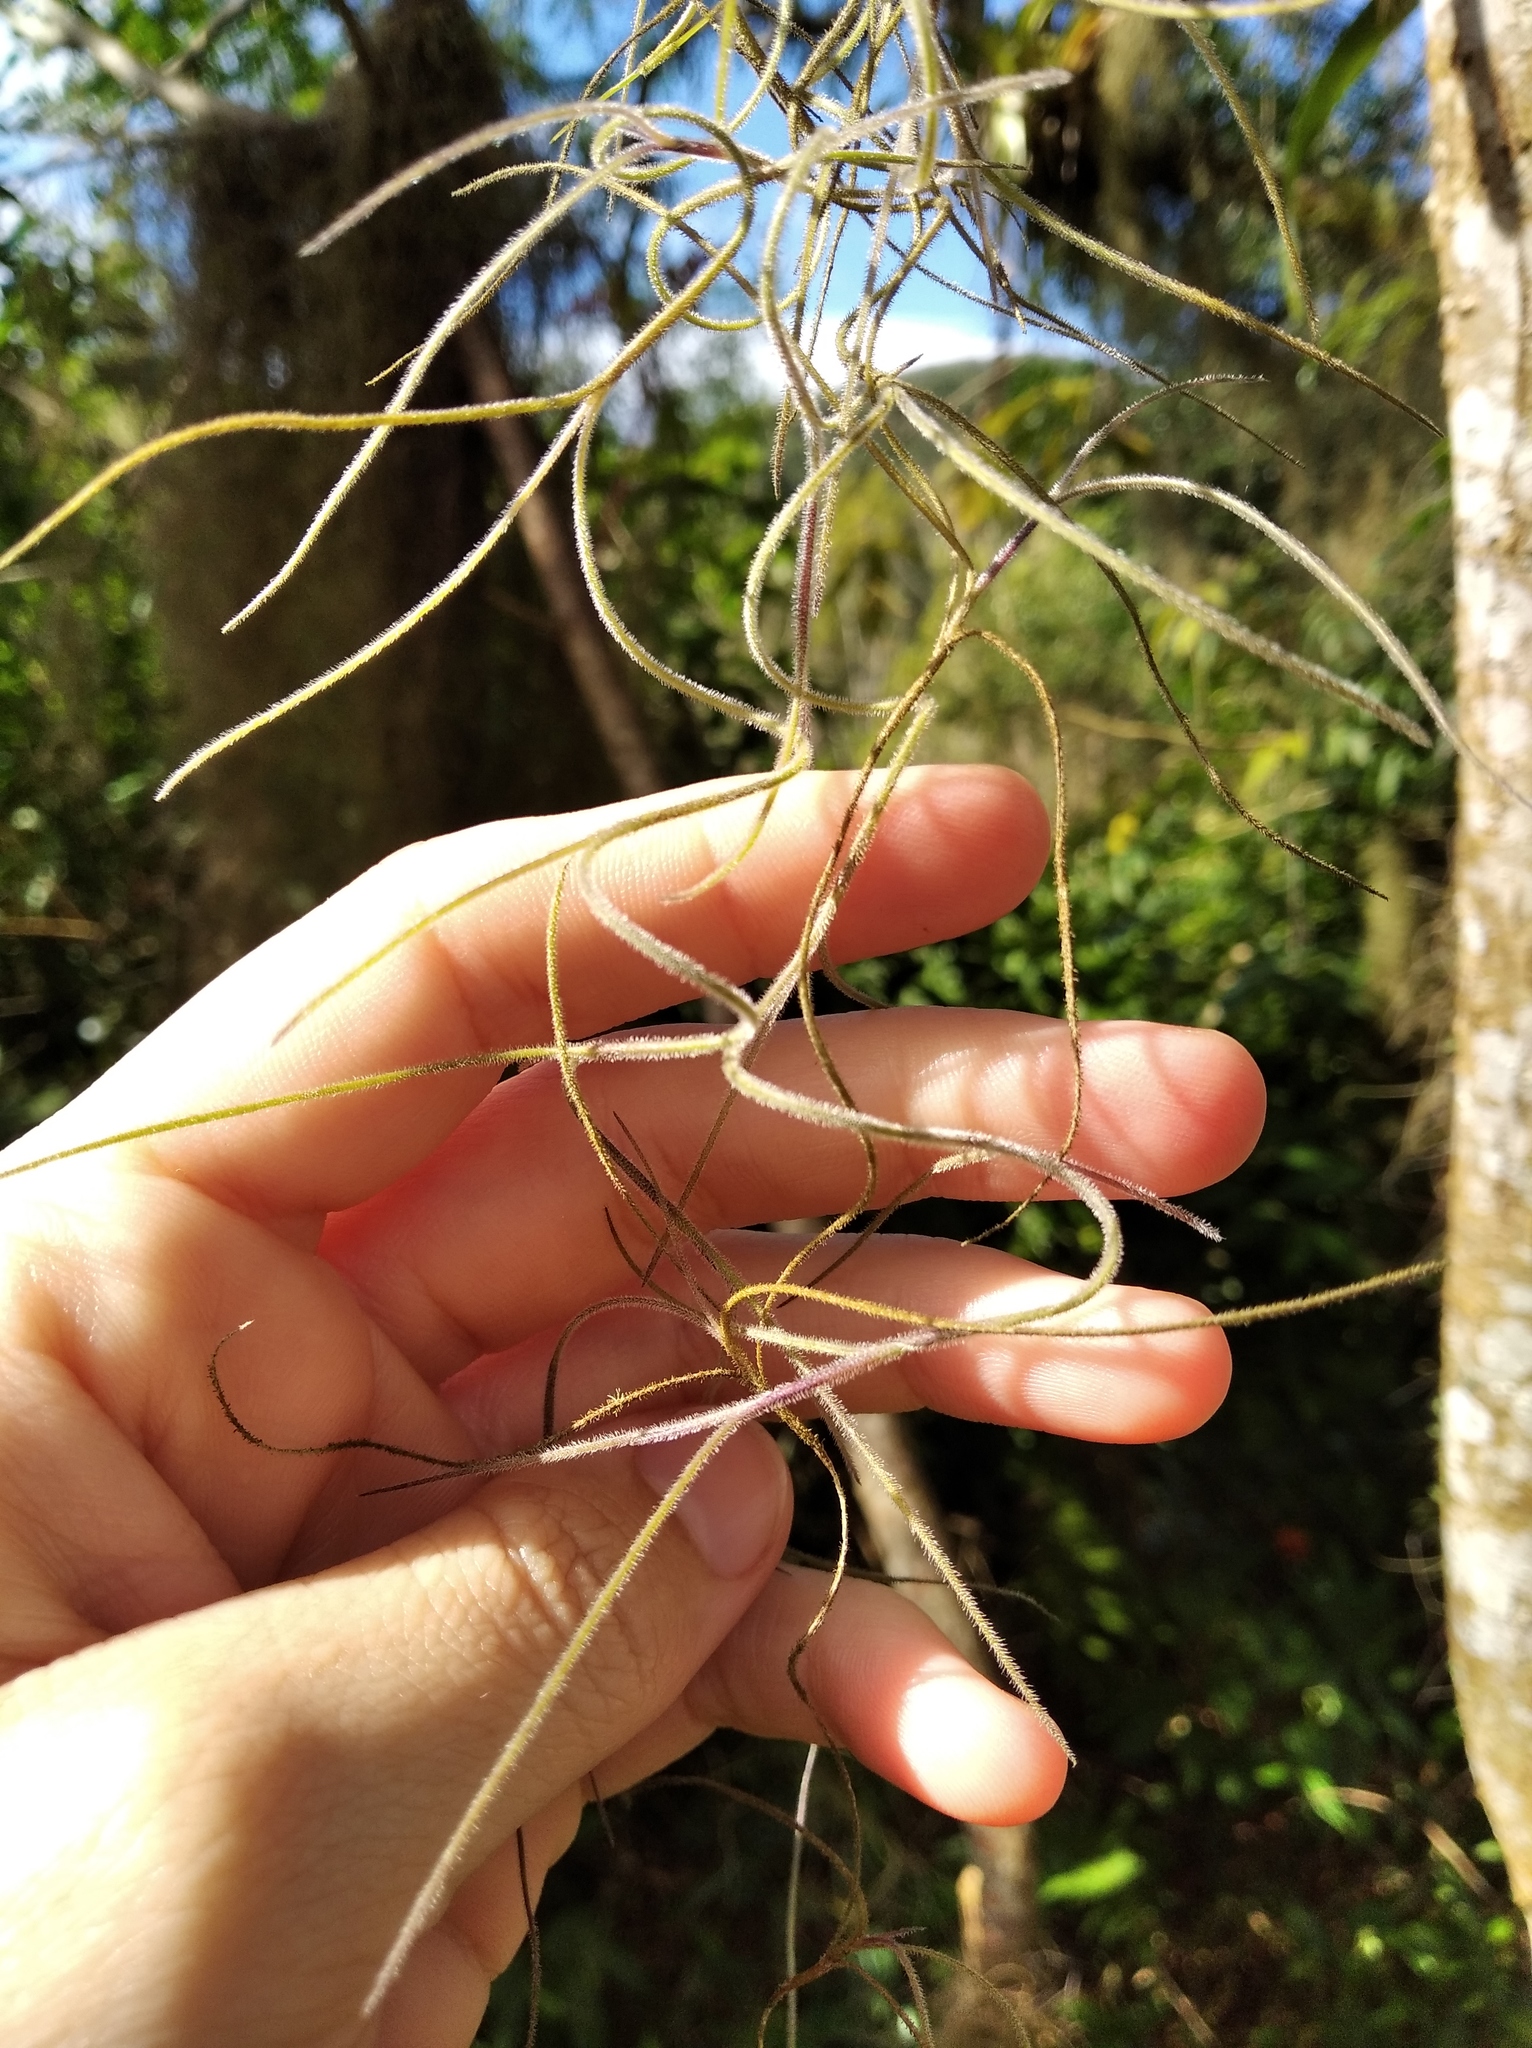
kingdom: Plantae
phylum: Tracheophyta
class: Liliopsida
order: Poales
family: Bromeliaceae
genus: Tillandsia
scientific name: Tillandsia usneoides
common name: Spanish moss
